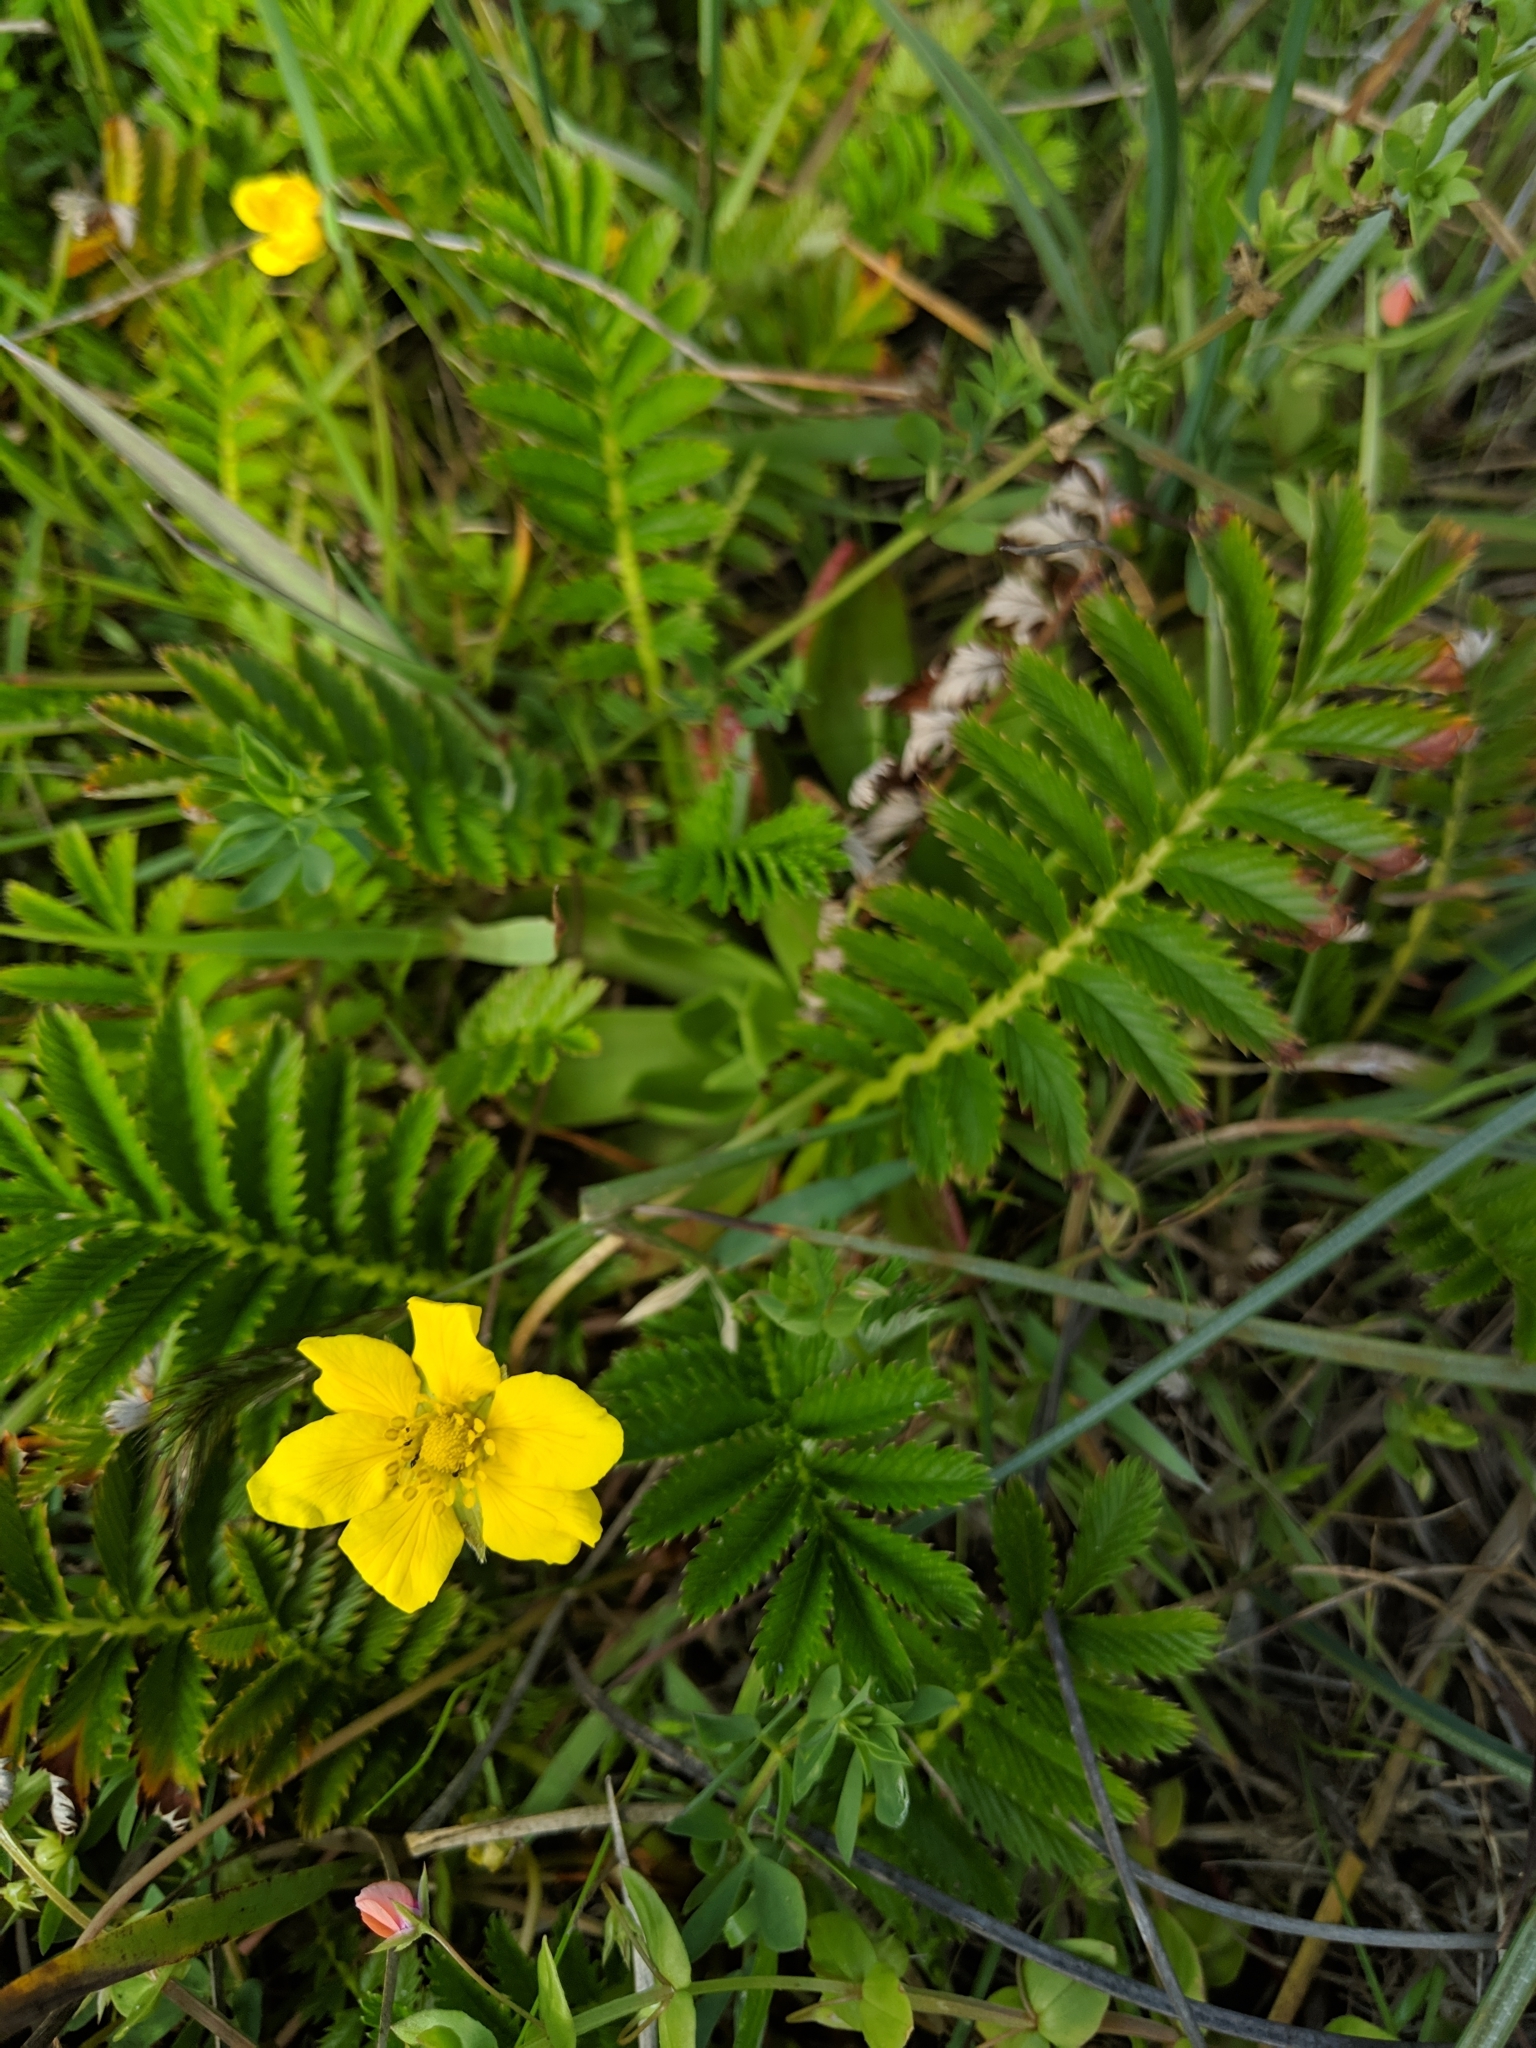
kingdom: Plantae
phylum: Tracheophyta
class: Magnoliopsida
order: Rosales
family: Rosaceae
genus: Argentina
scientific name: Argentina anserina
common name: Common silverweed
